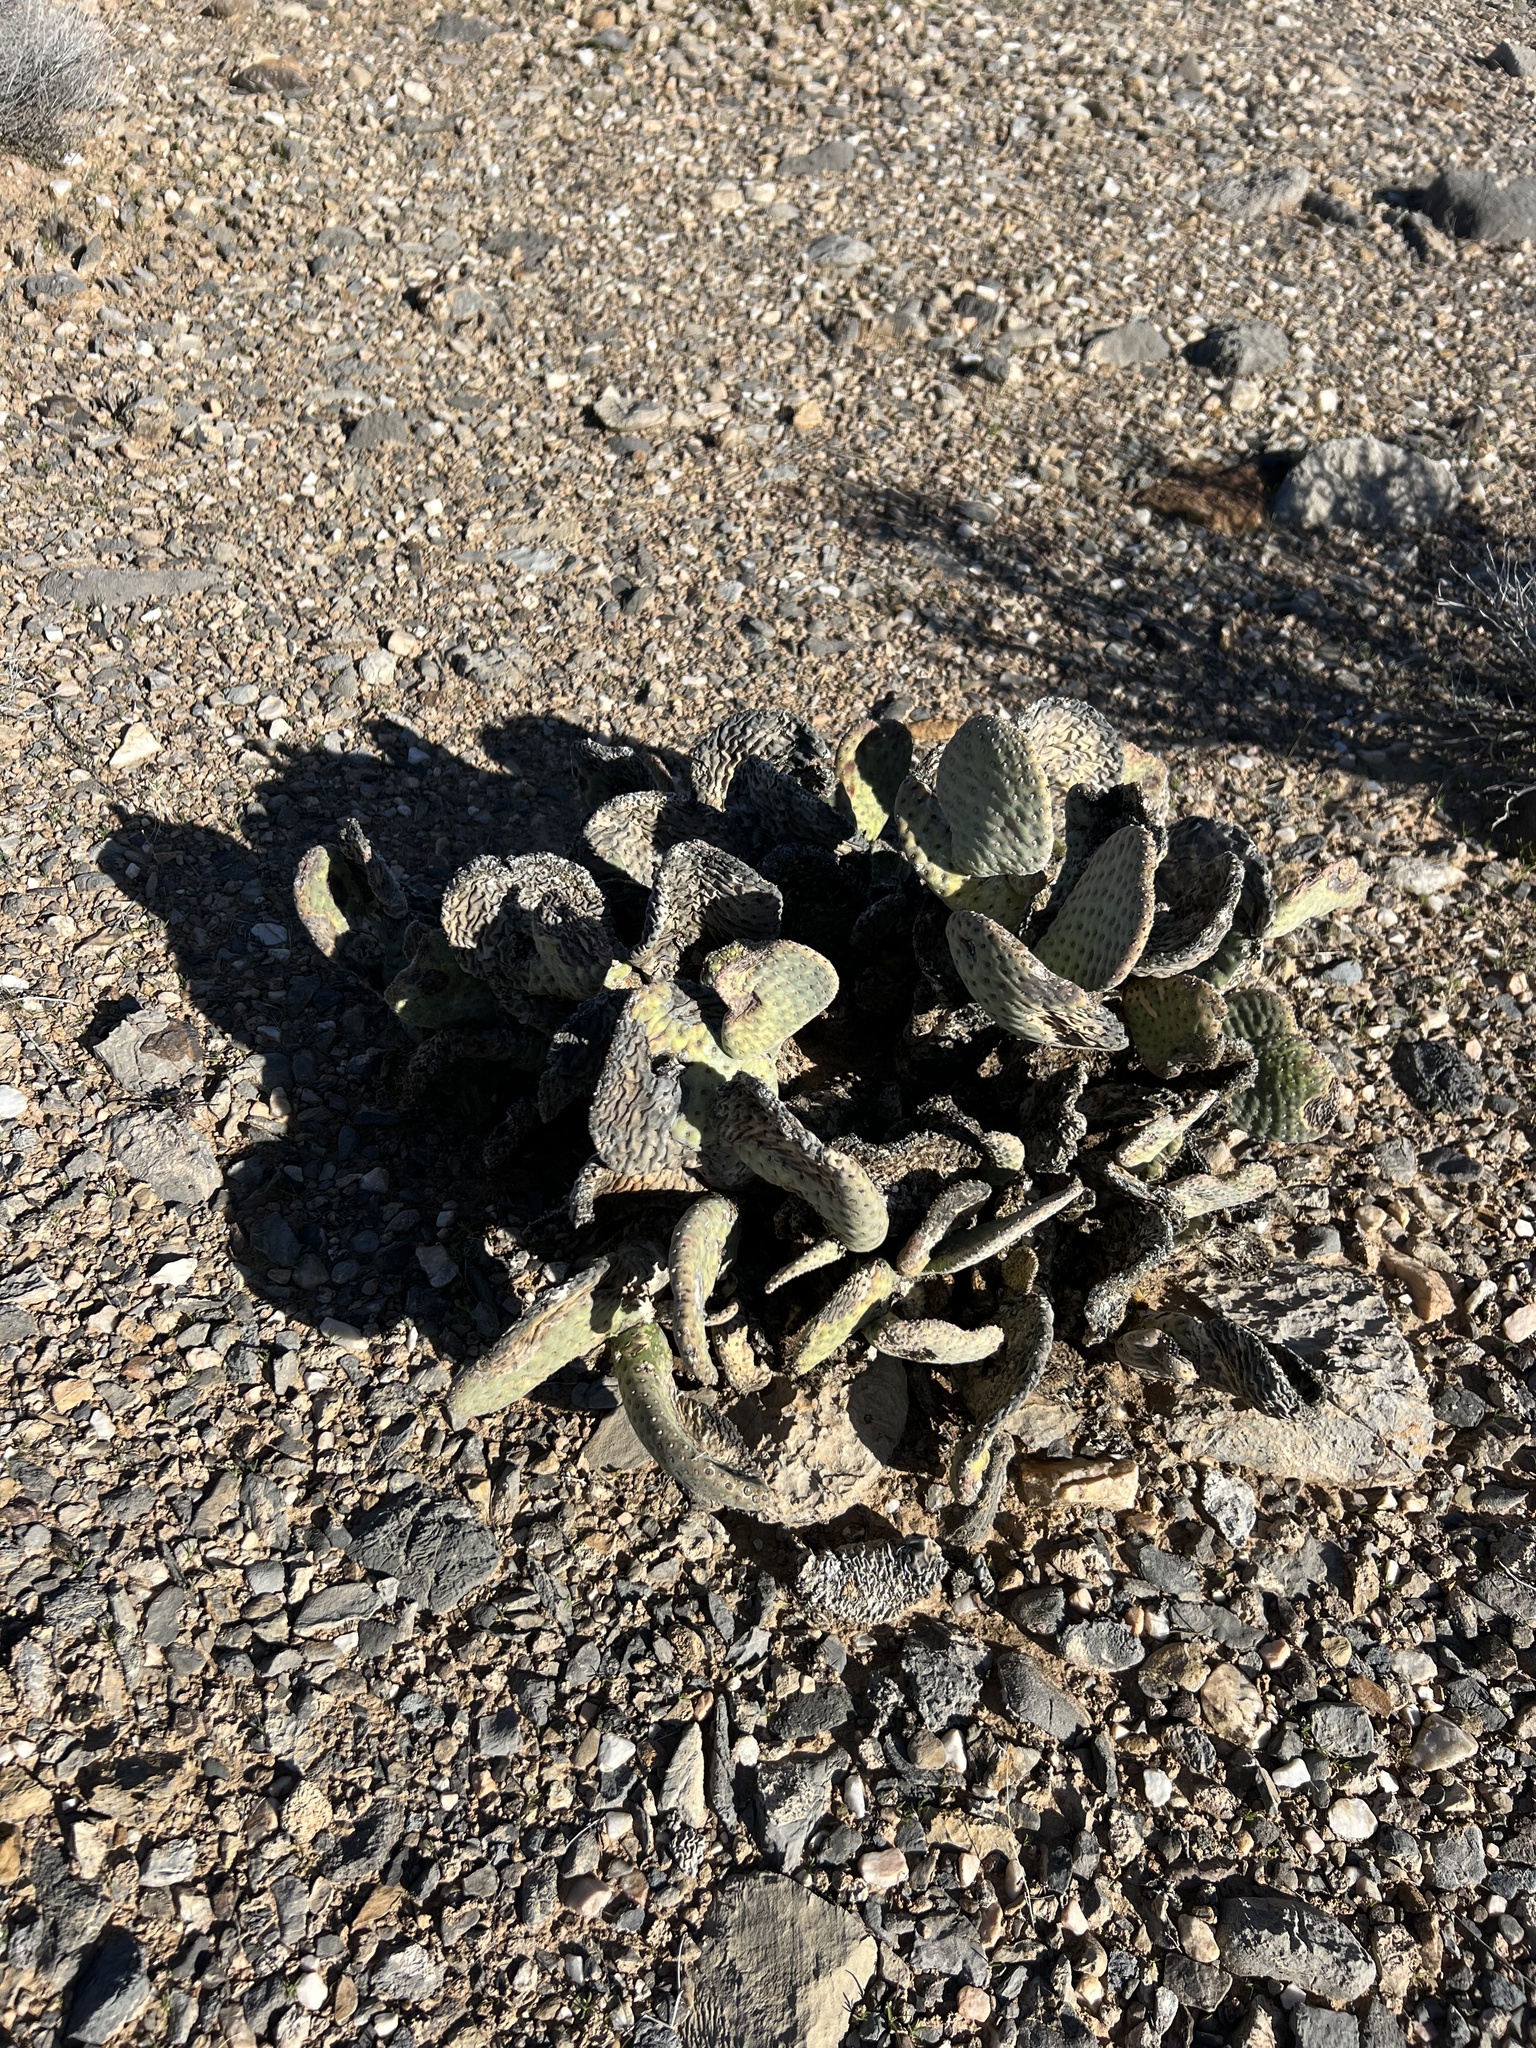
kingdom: Plantae
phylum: Tracheophyta
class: Magnoliopsida
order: Caryophyllales
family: Cactaceae
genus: Opuntia
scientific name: Opuntia basilaris
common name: Beavertail prickly-pear
